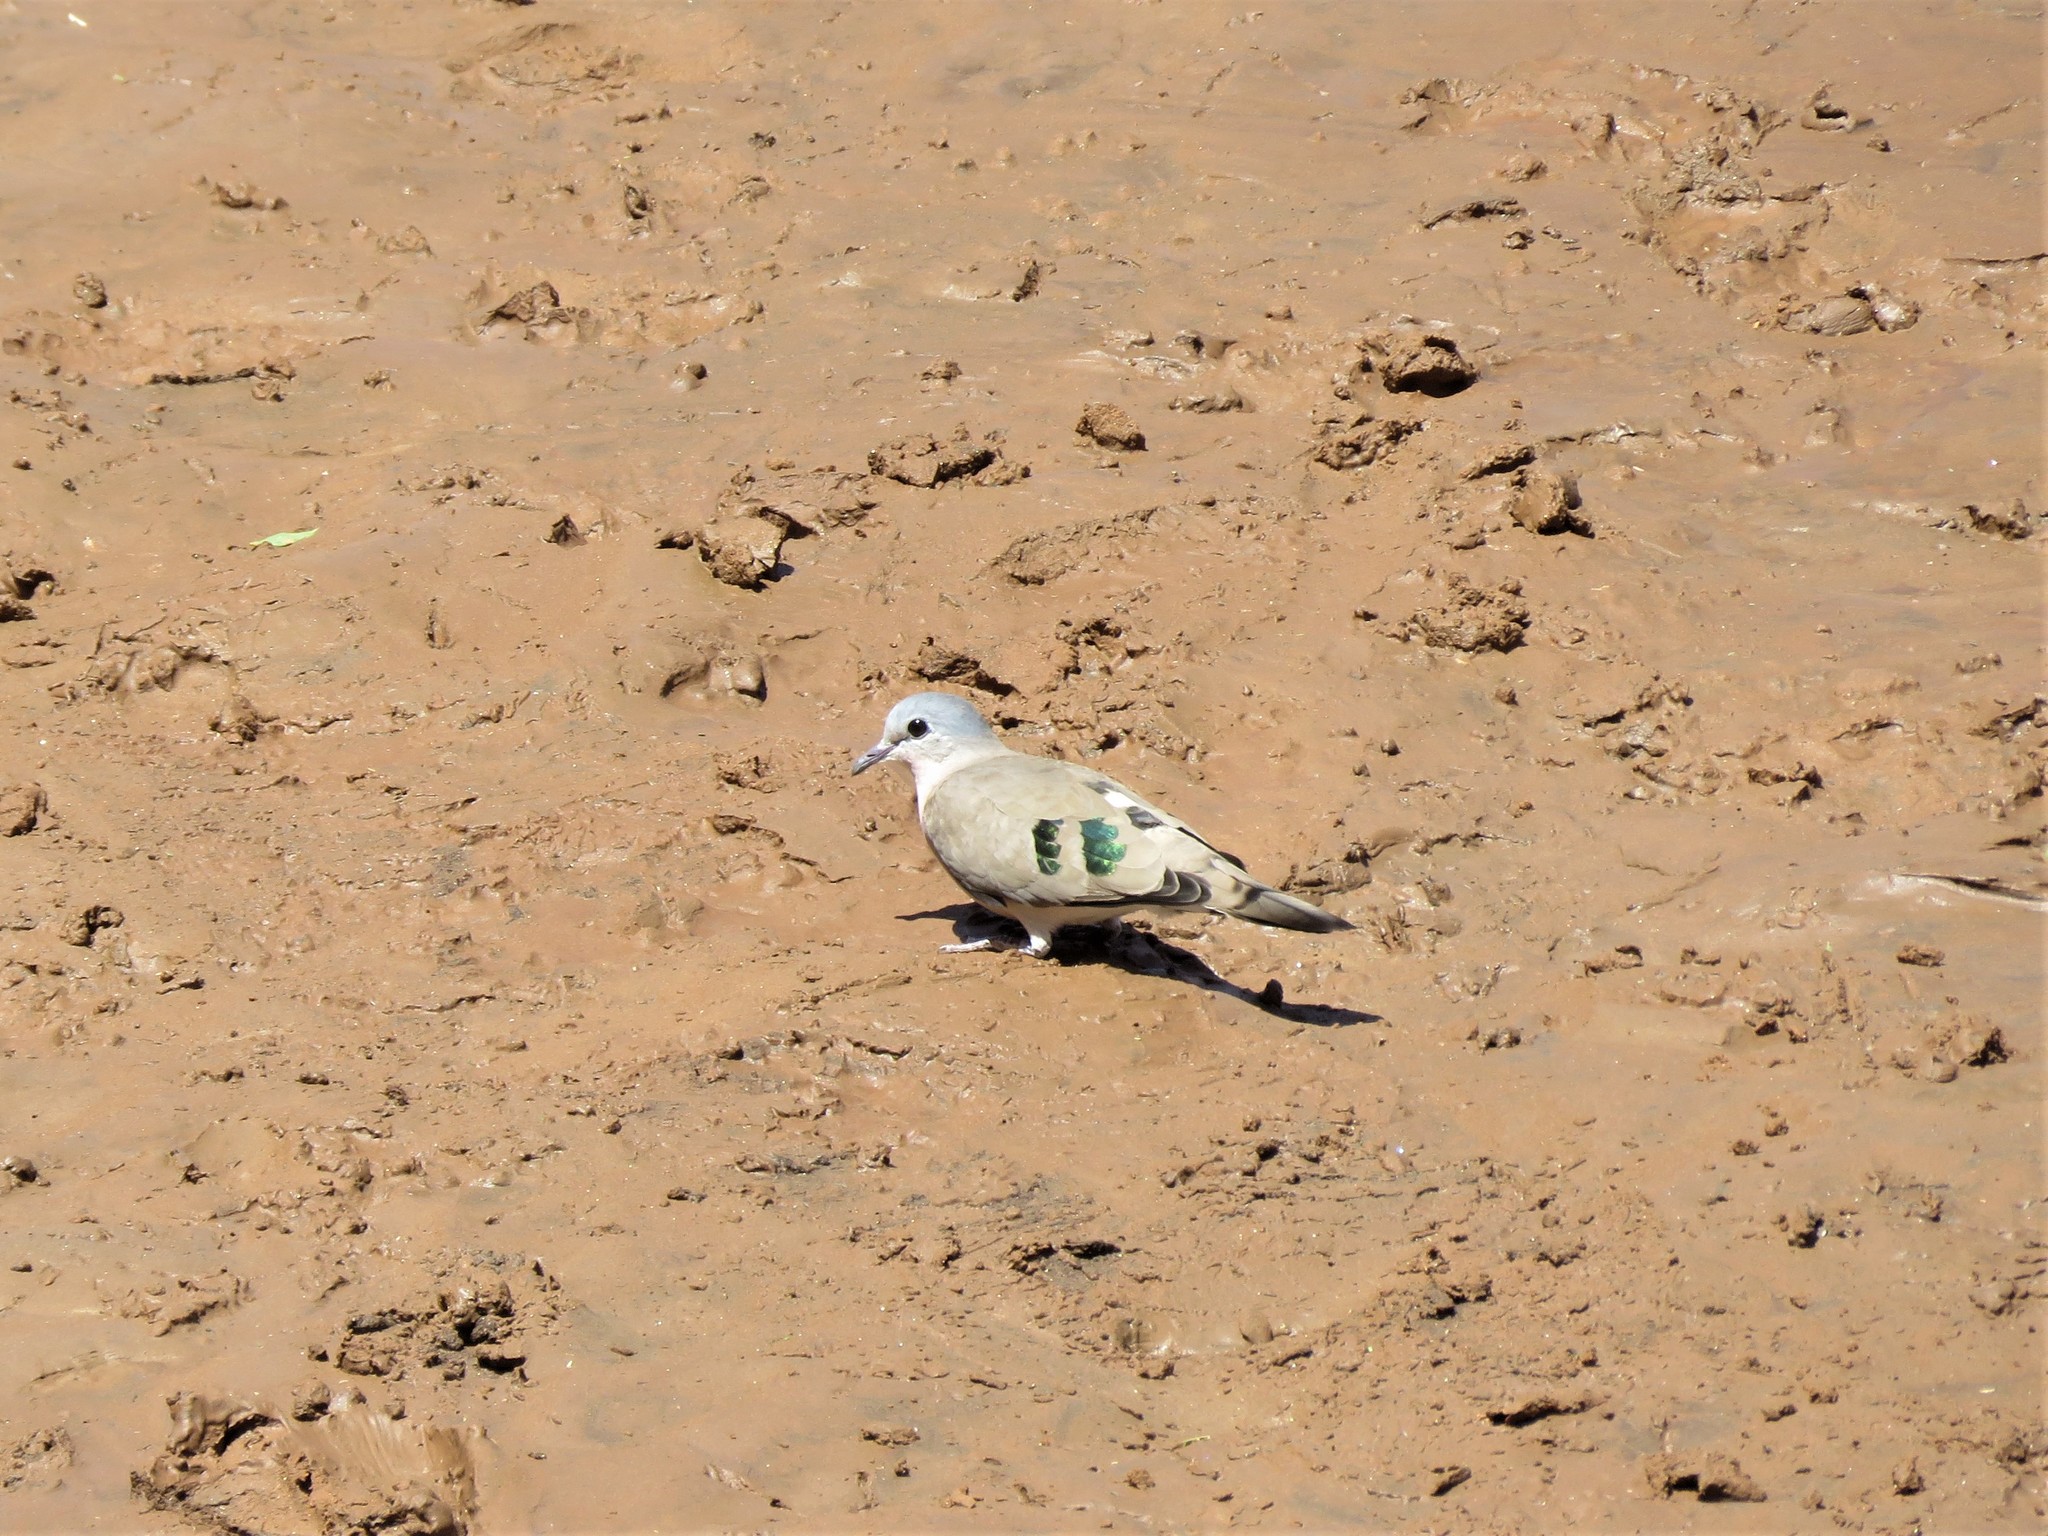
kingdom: Animalia
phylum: Chordata
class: Aves
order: Columbiformes
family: Columbidae
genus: Turtur
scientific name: Turtur chalcospilos
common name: Emerald-spotted wood dove
